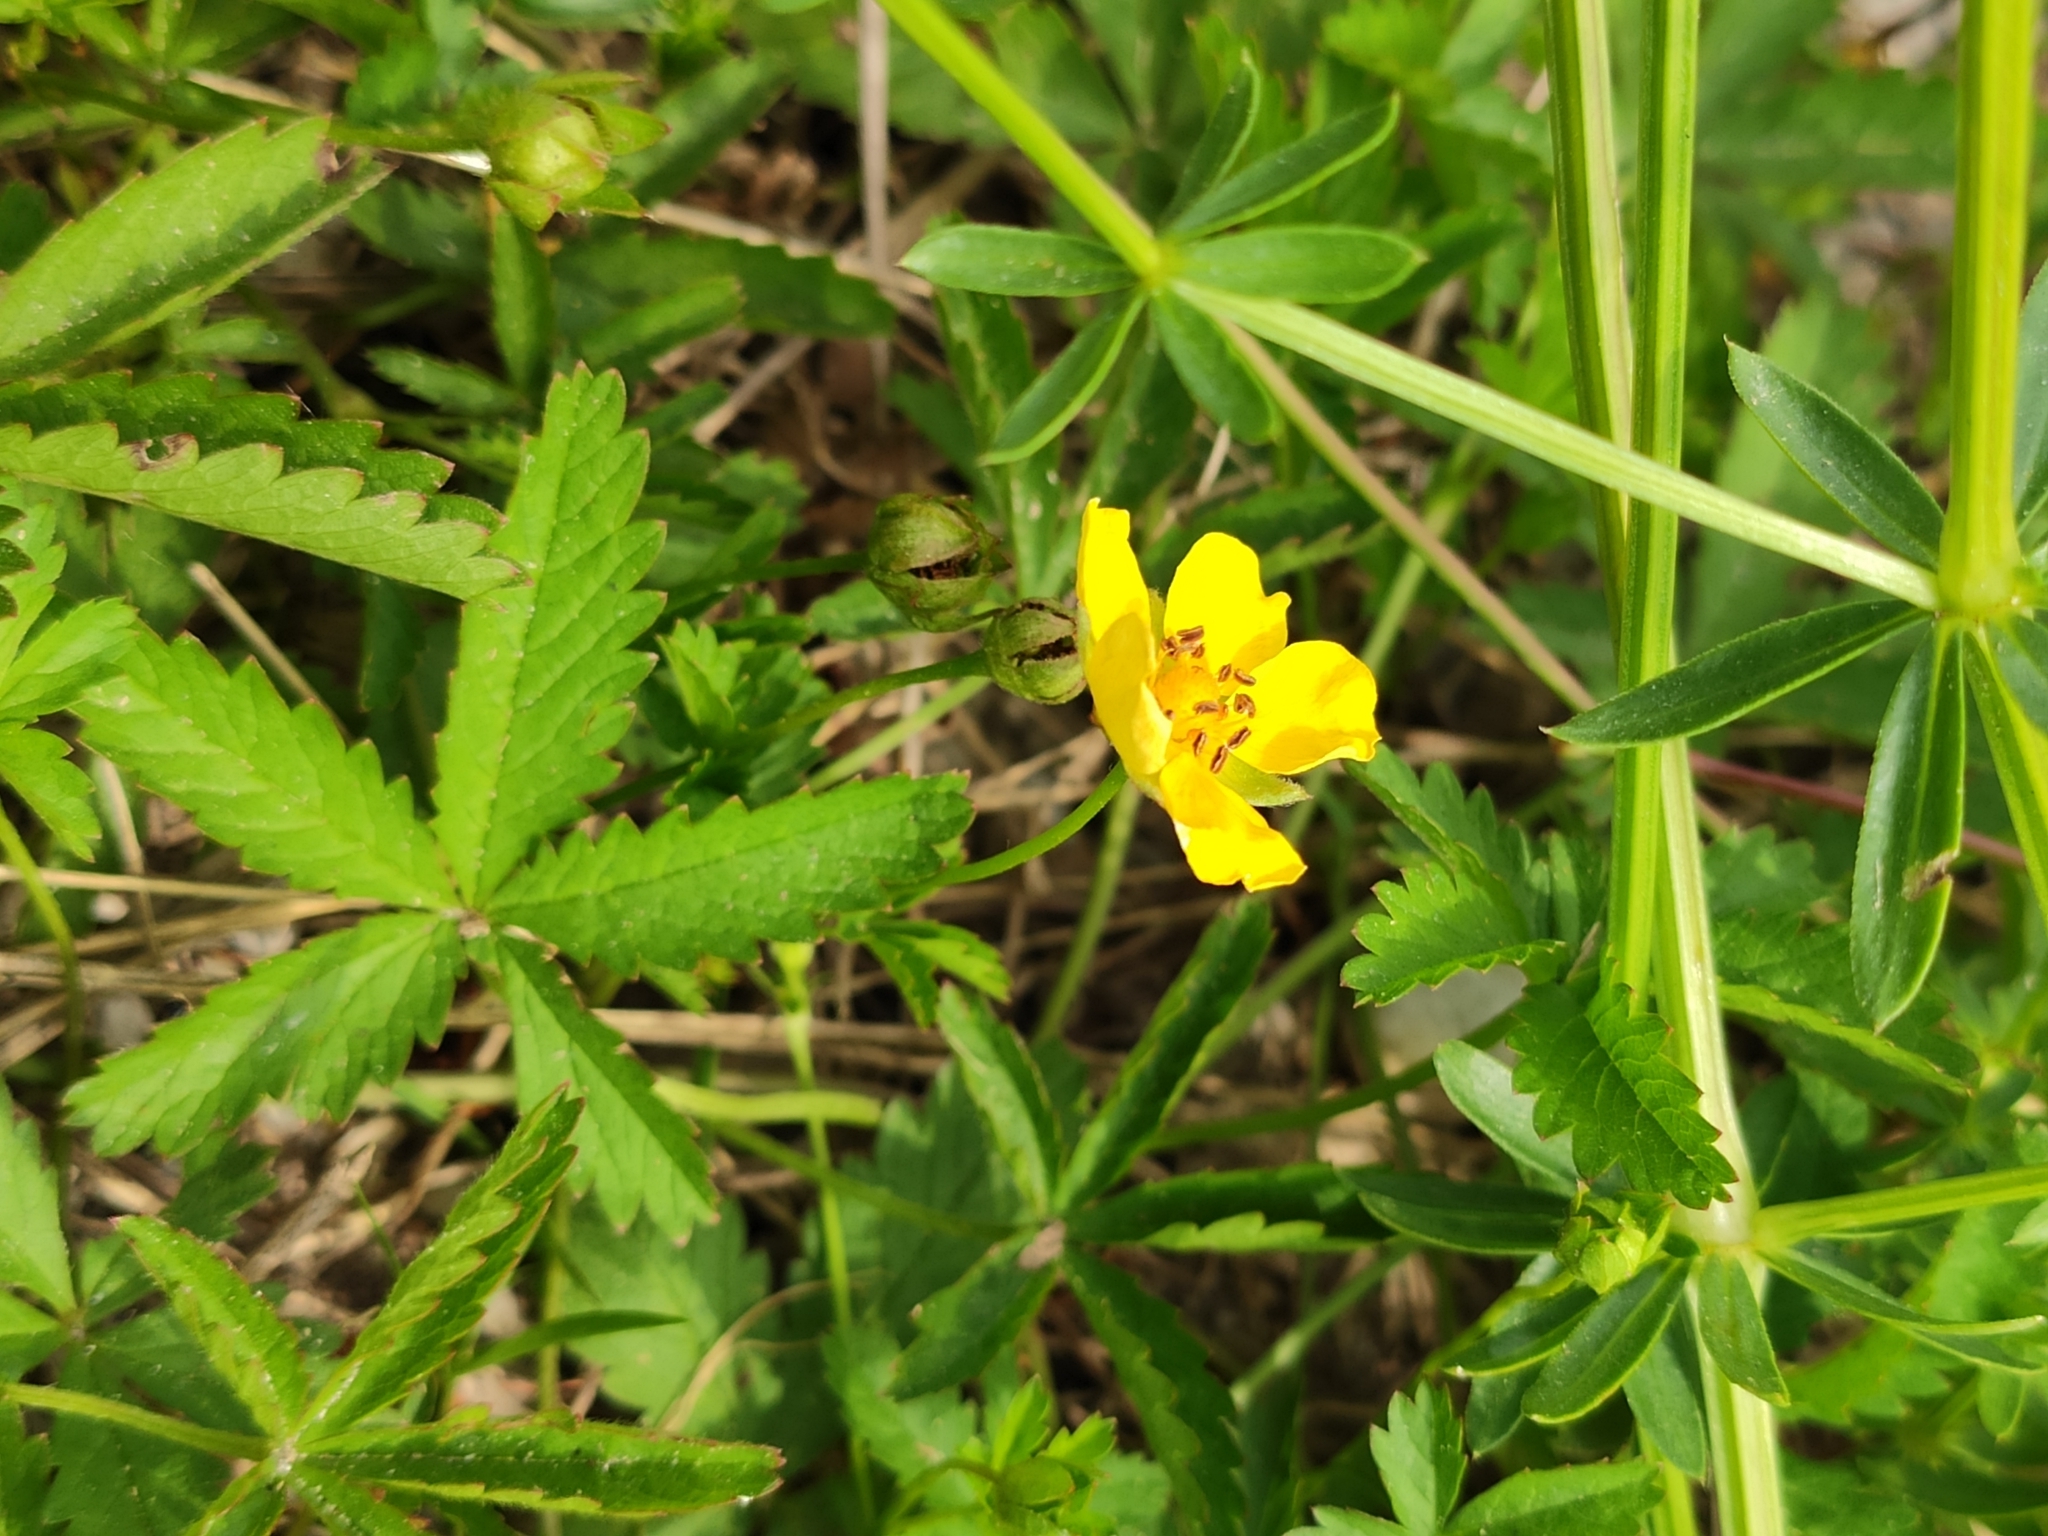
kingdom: Plantae
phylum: Tracheophyta
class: Magnoliopsida
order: Rosales
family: Rosaceae
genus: Potentilla
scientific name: Potentilla reptans
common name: Creeping cinquefoil
